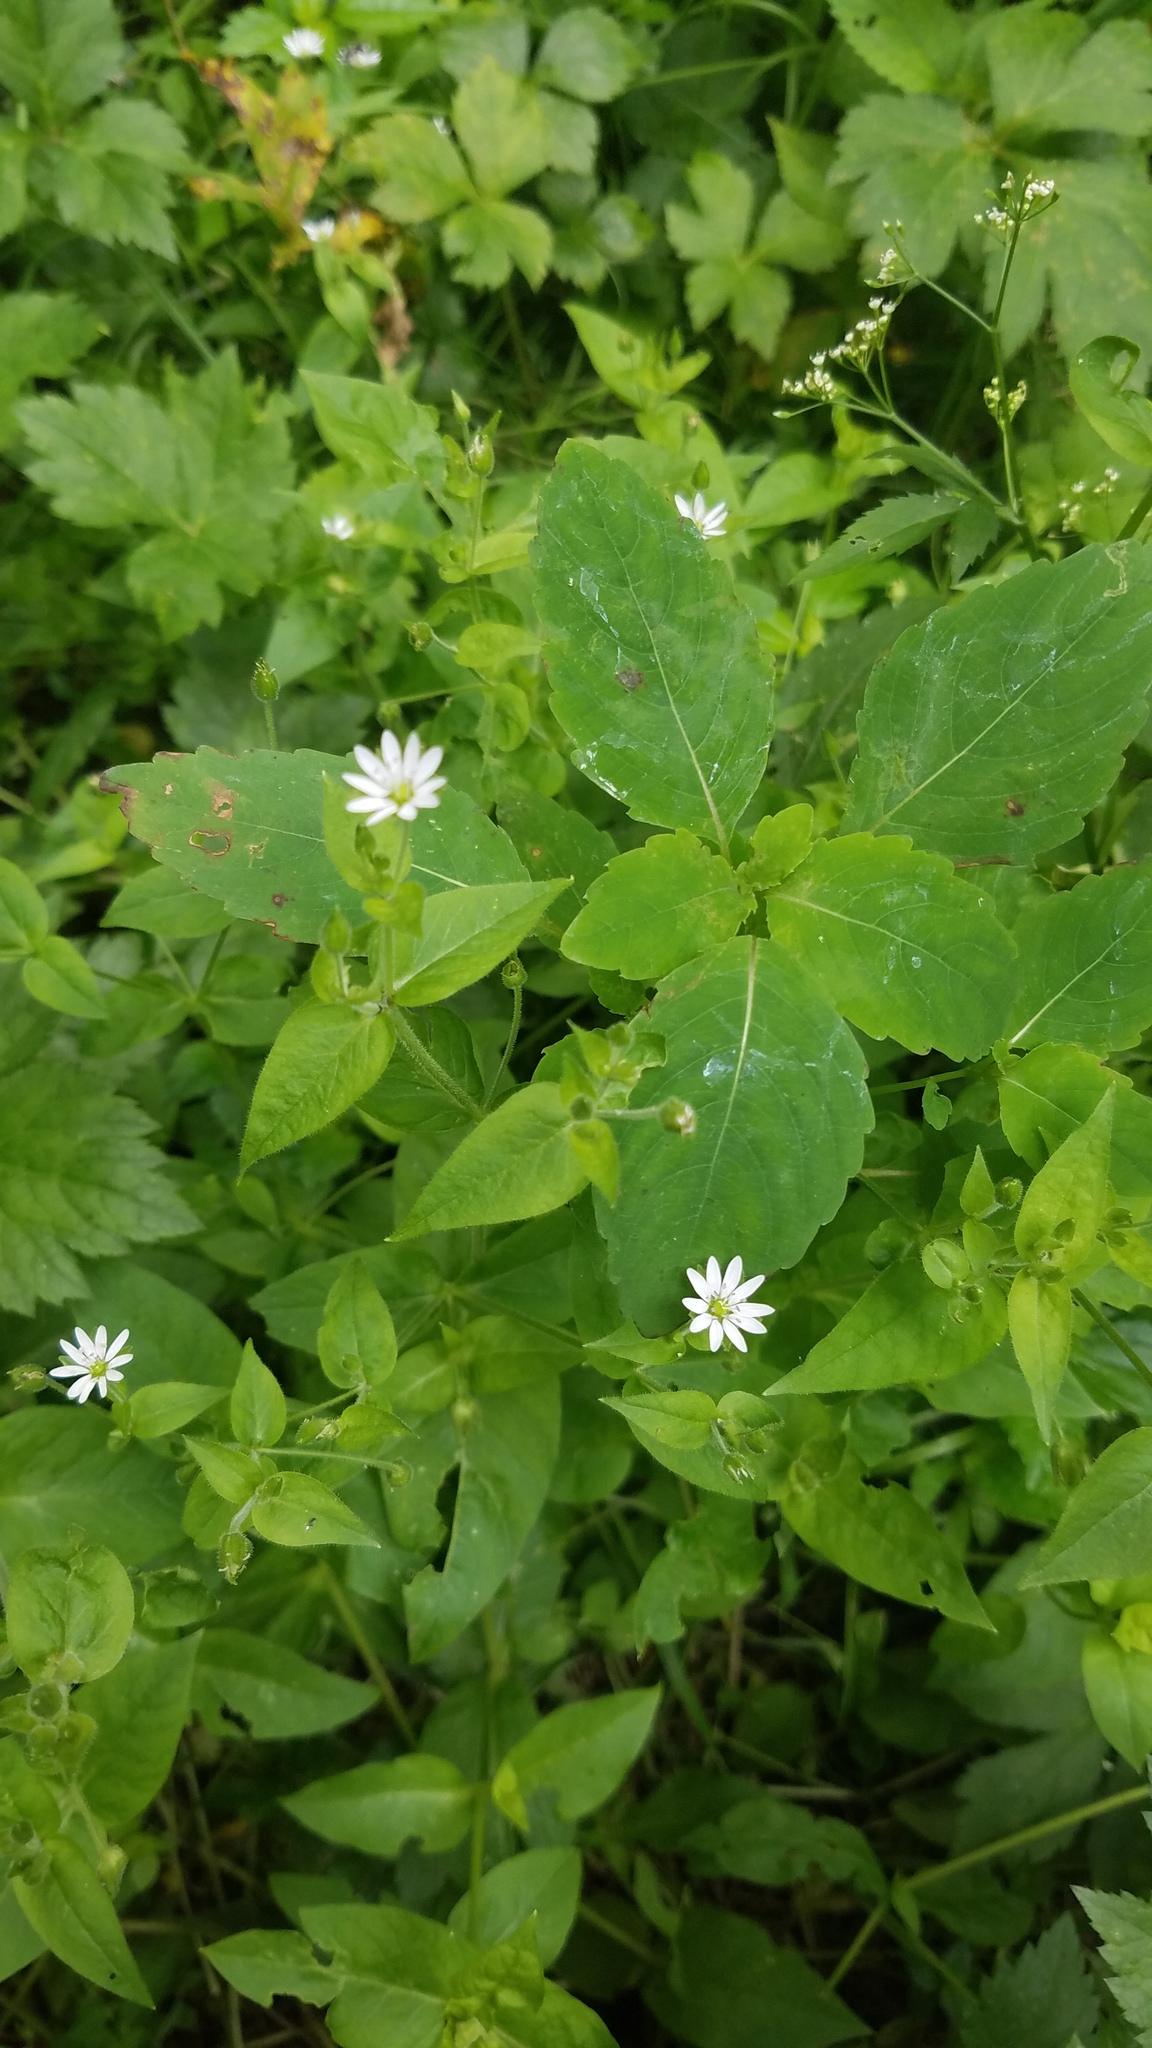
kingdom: Plantae
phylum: Tracheophyta
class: Magnoliopsida
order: Caryophyllales
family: Caryophyllaceae
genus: Stellaria
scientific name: Stellaria aquatica
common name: Water chickweed
